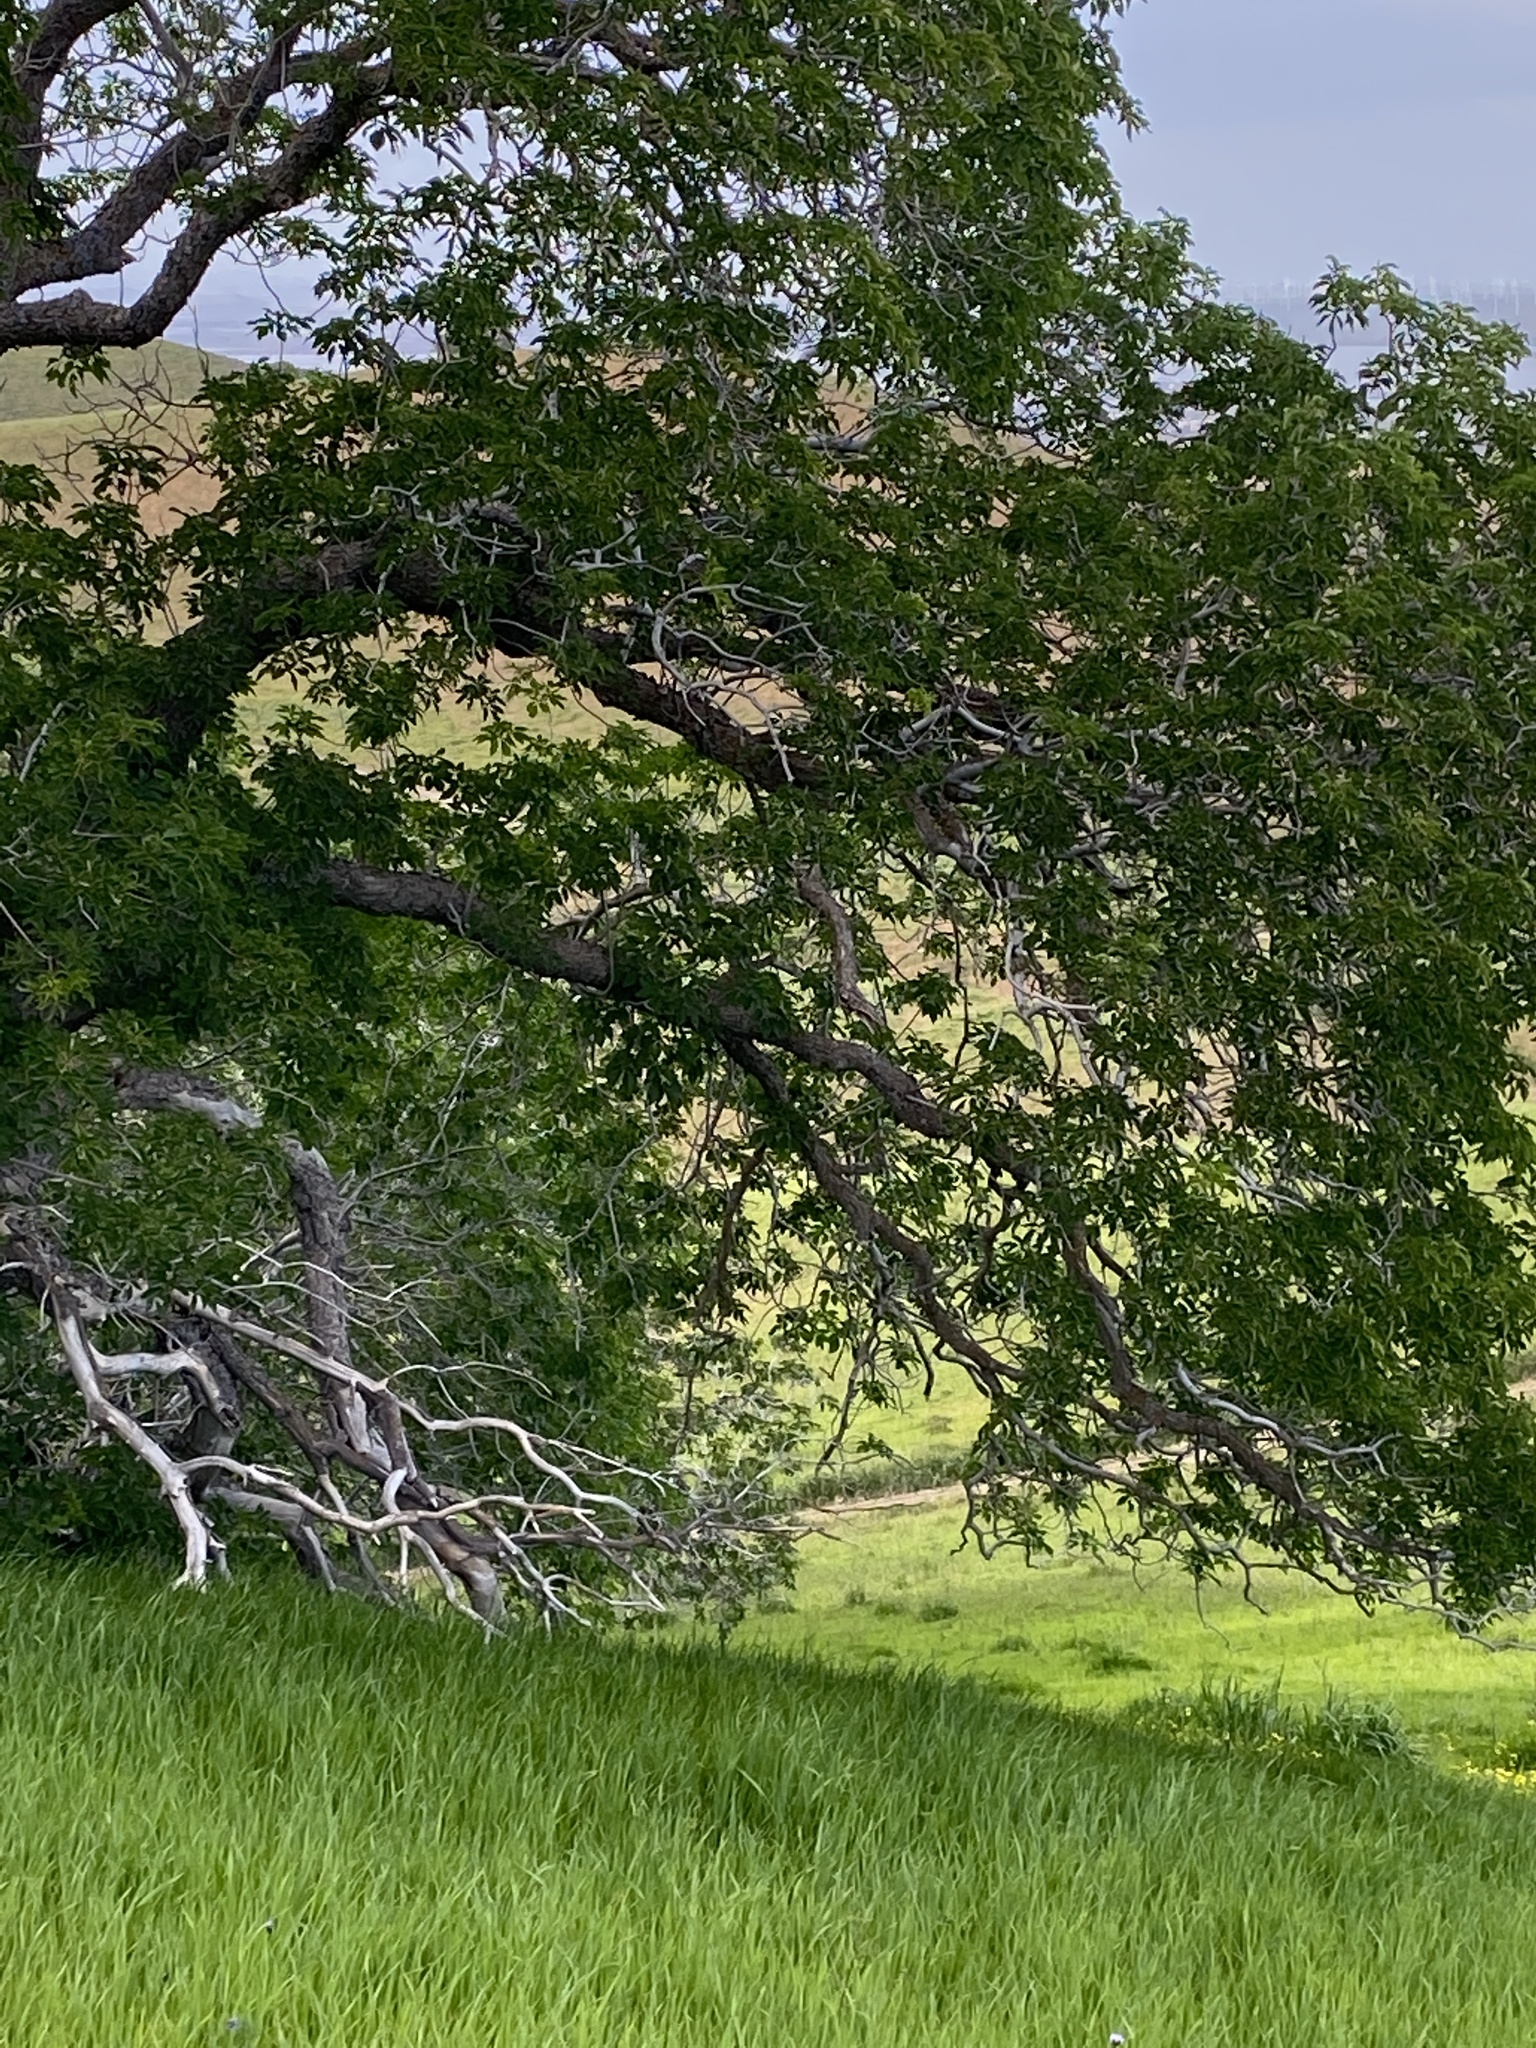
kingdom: Plantae
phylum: Tracheophyta
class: Magnoliopsida
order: Sapindales
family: Sapindaceae
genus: Aesculus
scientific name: Aesculus californica
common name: California buckeye
